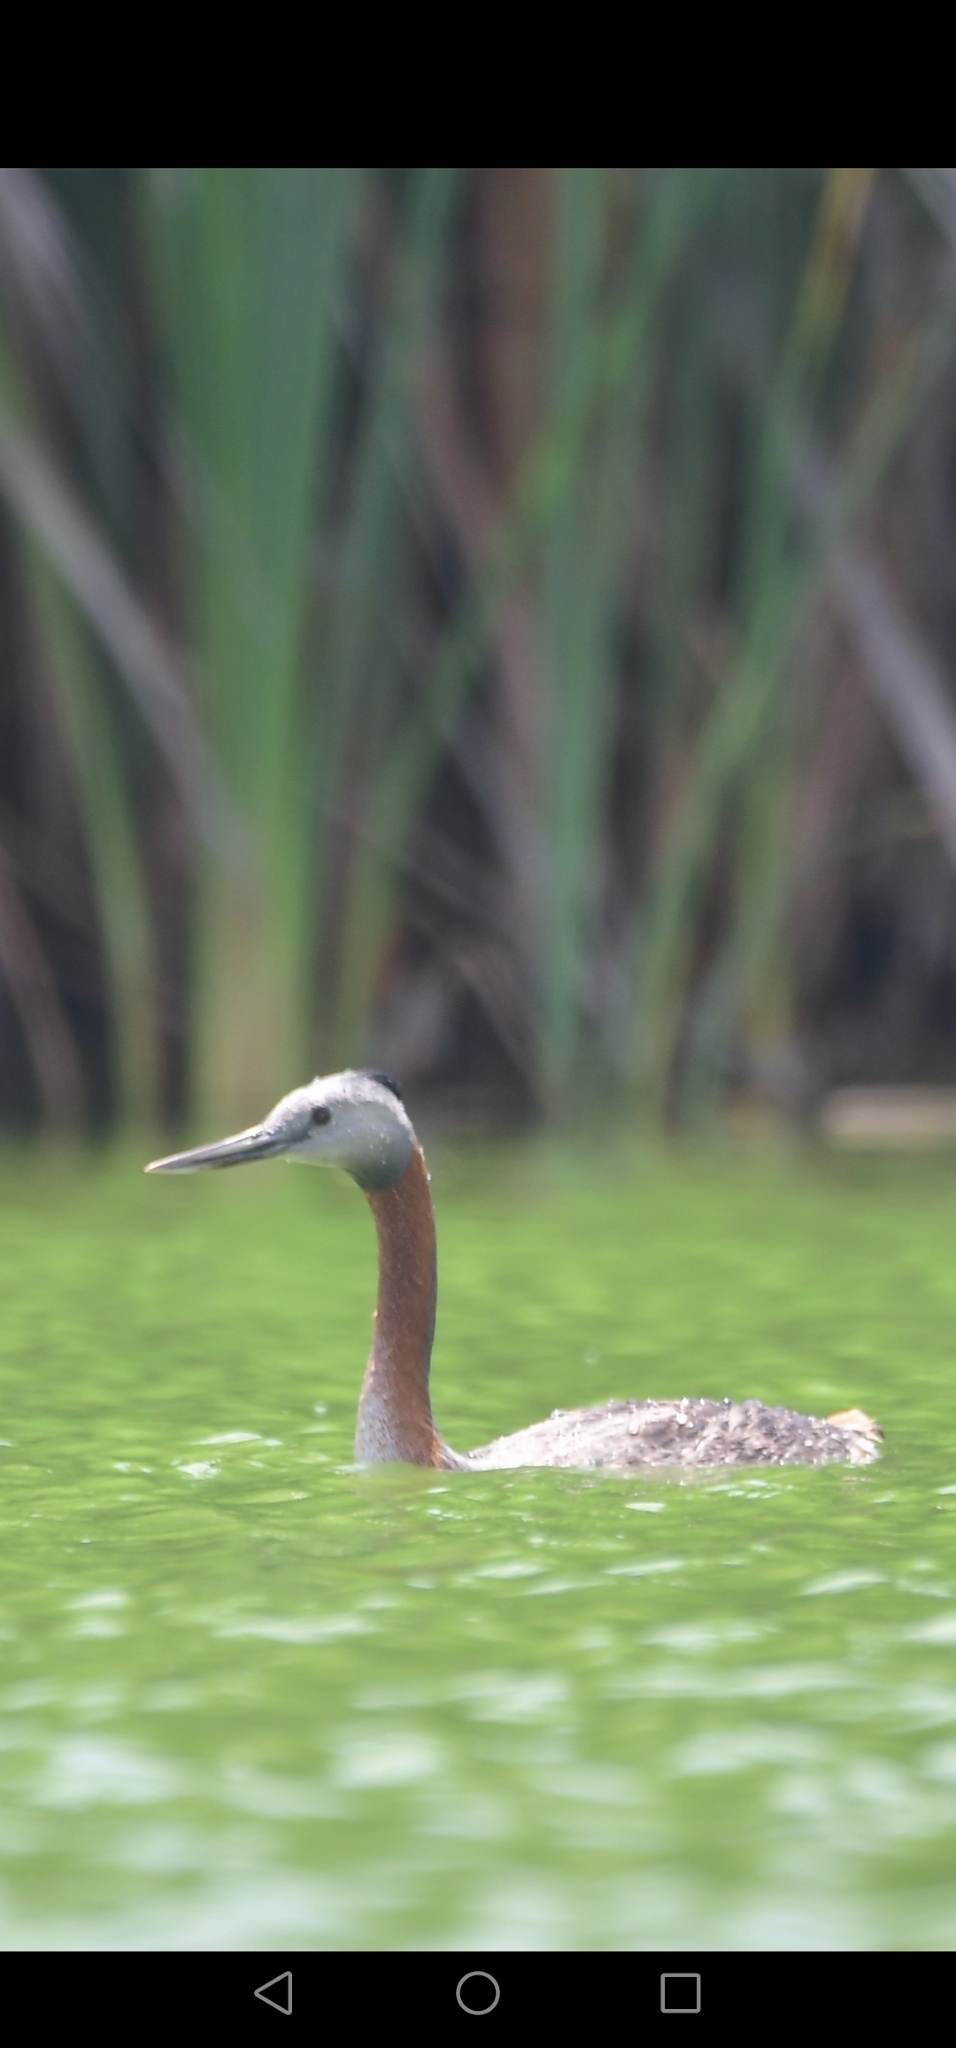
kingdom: Animalia
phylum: Chordata
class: Aves
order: Podicipediformes
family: Podicipedidae
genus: Podiceps
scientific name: Podiceps major
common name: Great grebe
